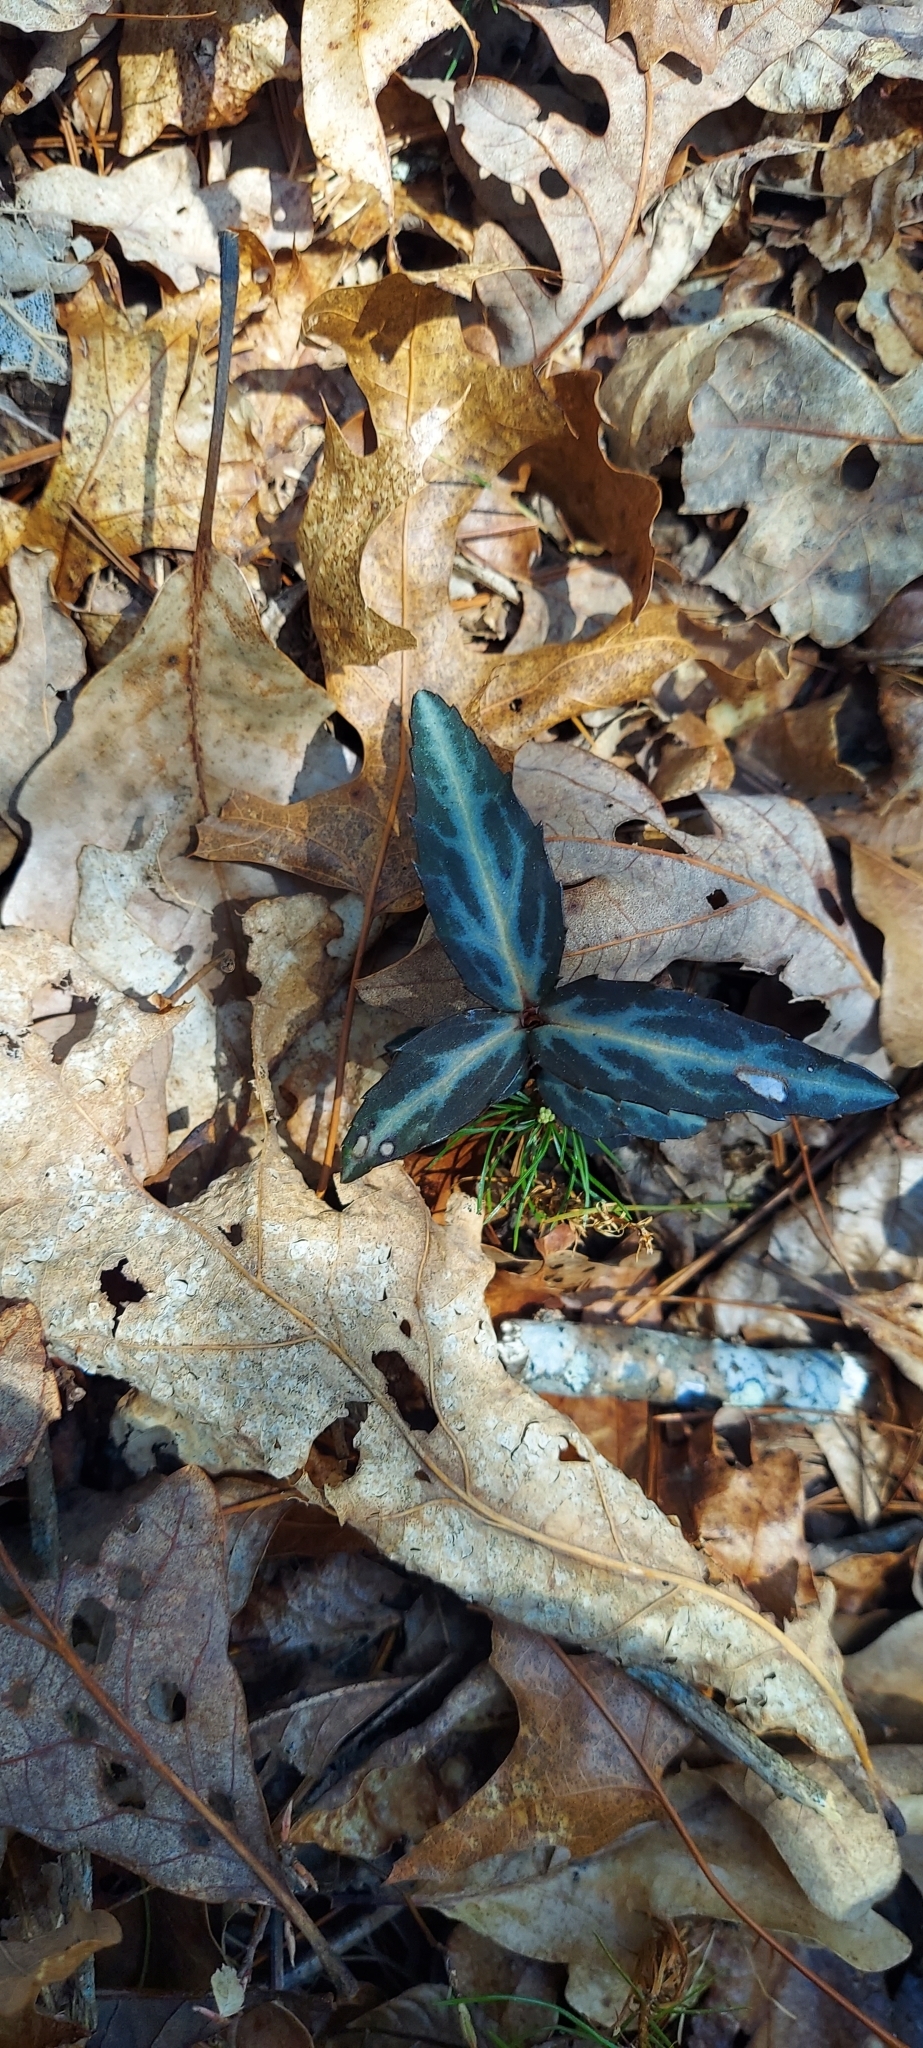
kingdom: Plantae
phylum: Tracheophyta
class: Magnoliopsida
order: Ericales
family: Ericaceae
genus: Chimaphila
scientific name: Chimaphila maculata
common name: Spotted pipsissewa
